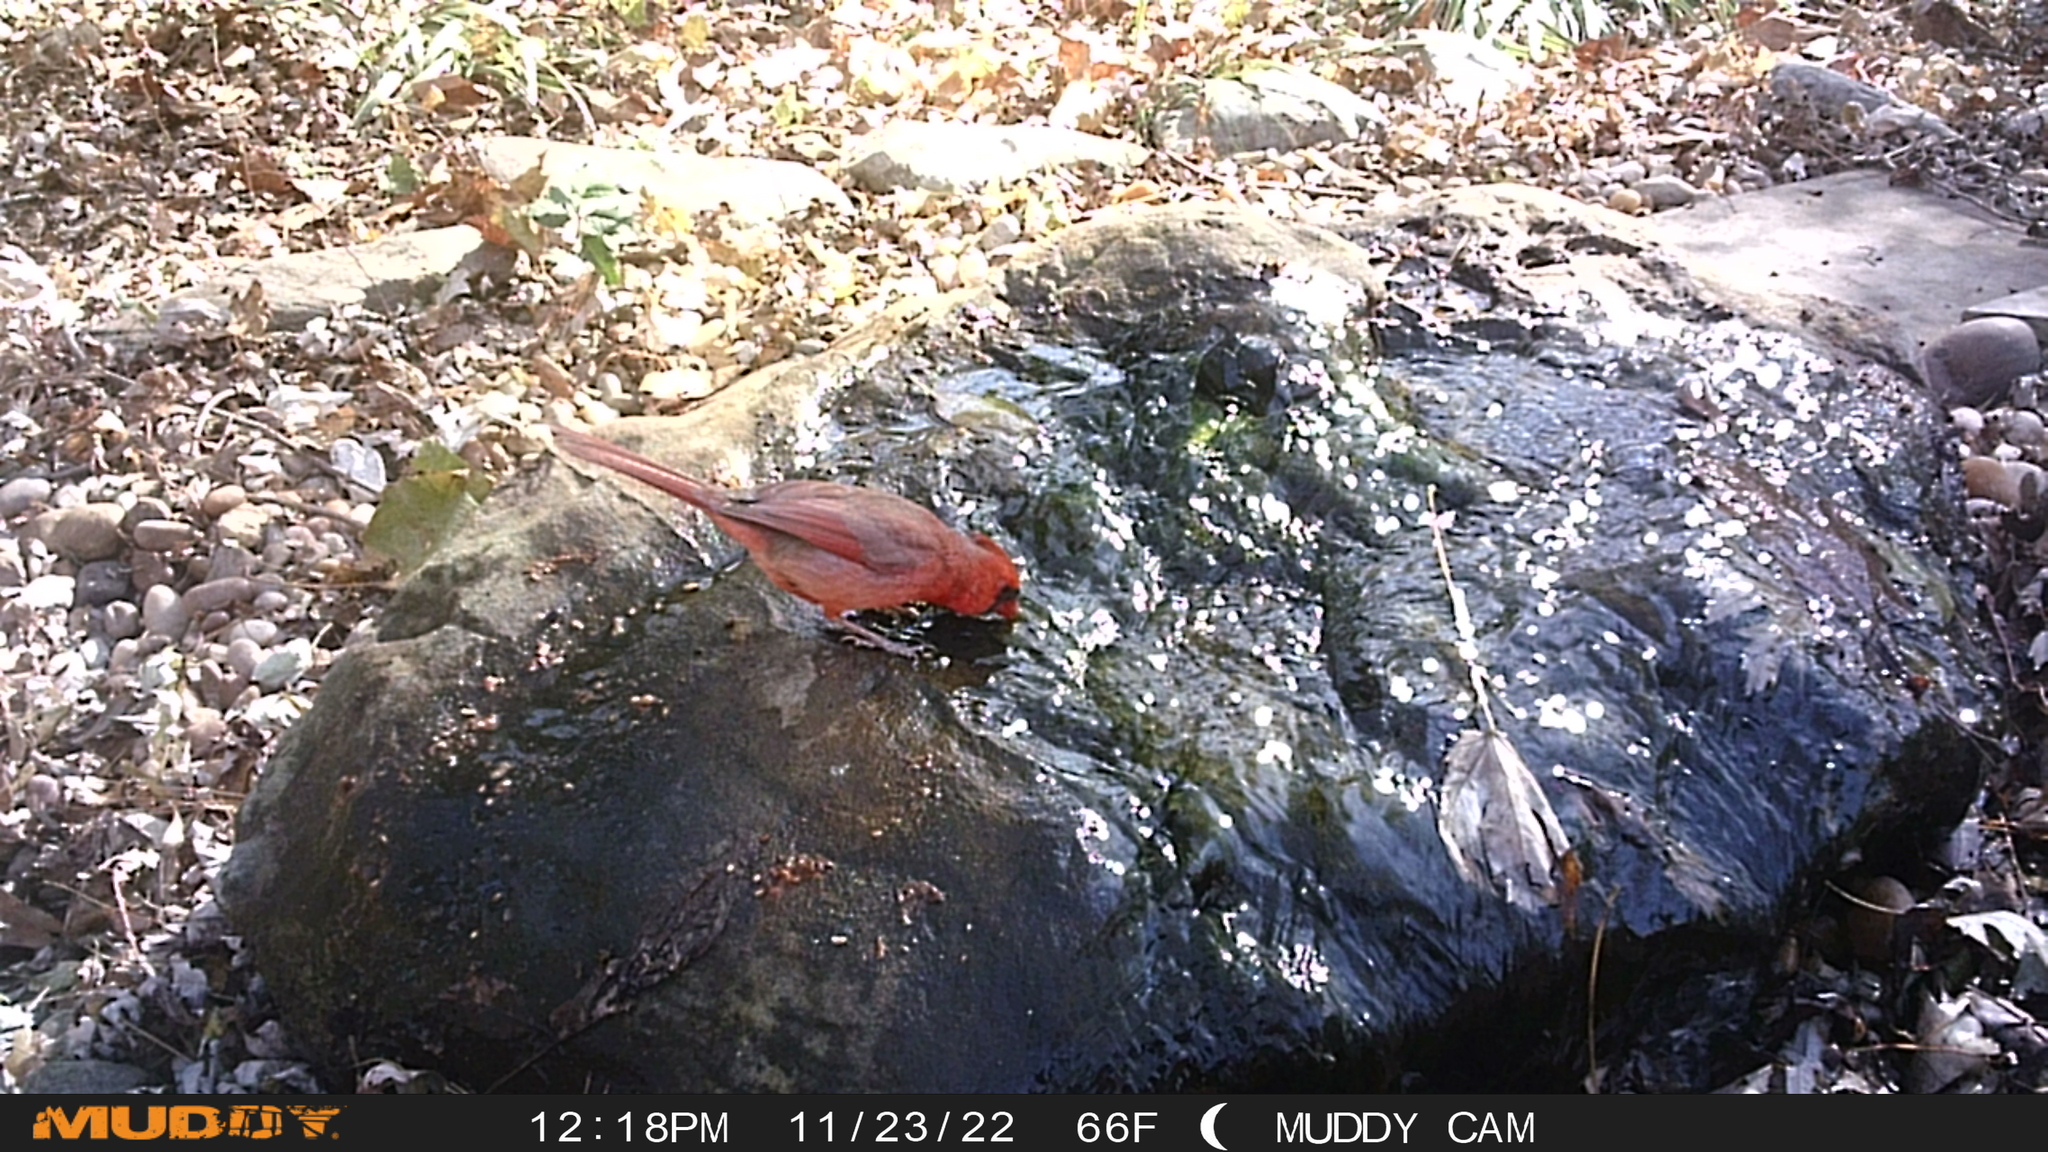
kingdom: Animalia
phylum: Chordata
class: Aves
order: Passeriformes
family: Cardinalidae
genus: Cardinalis
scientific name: Cardinalis cardinalis
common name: Northern cardinal
